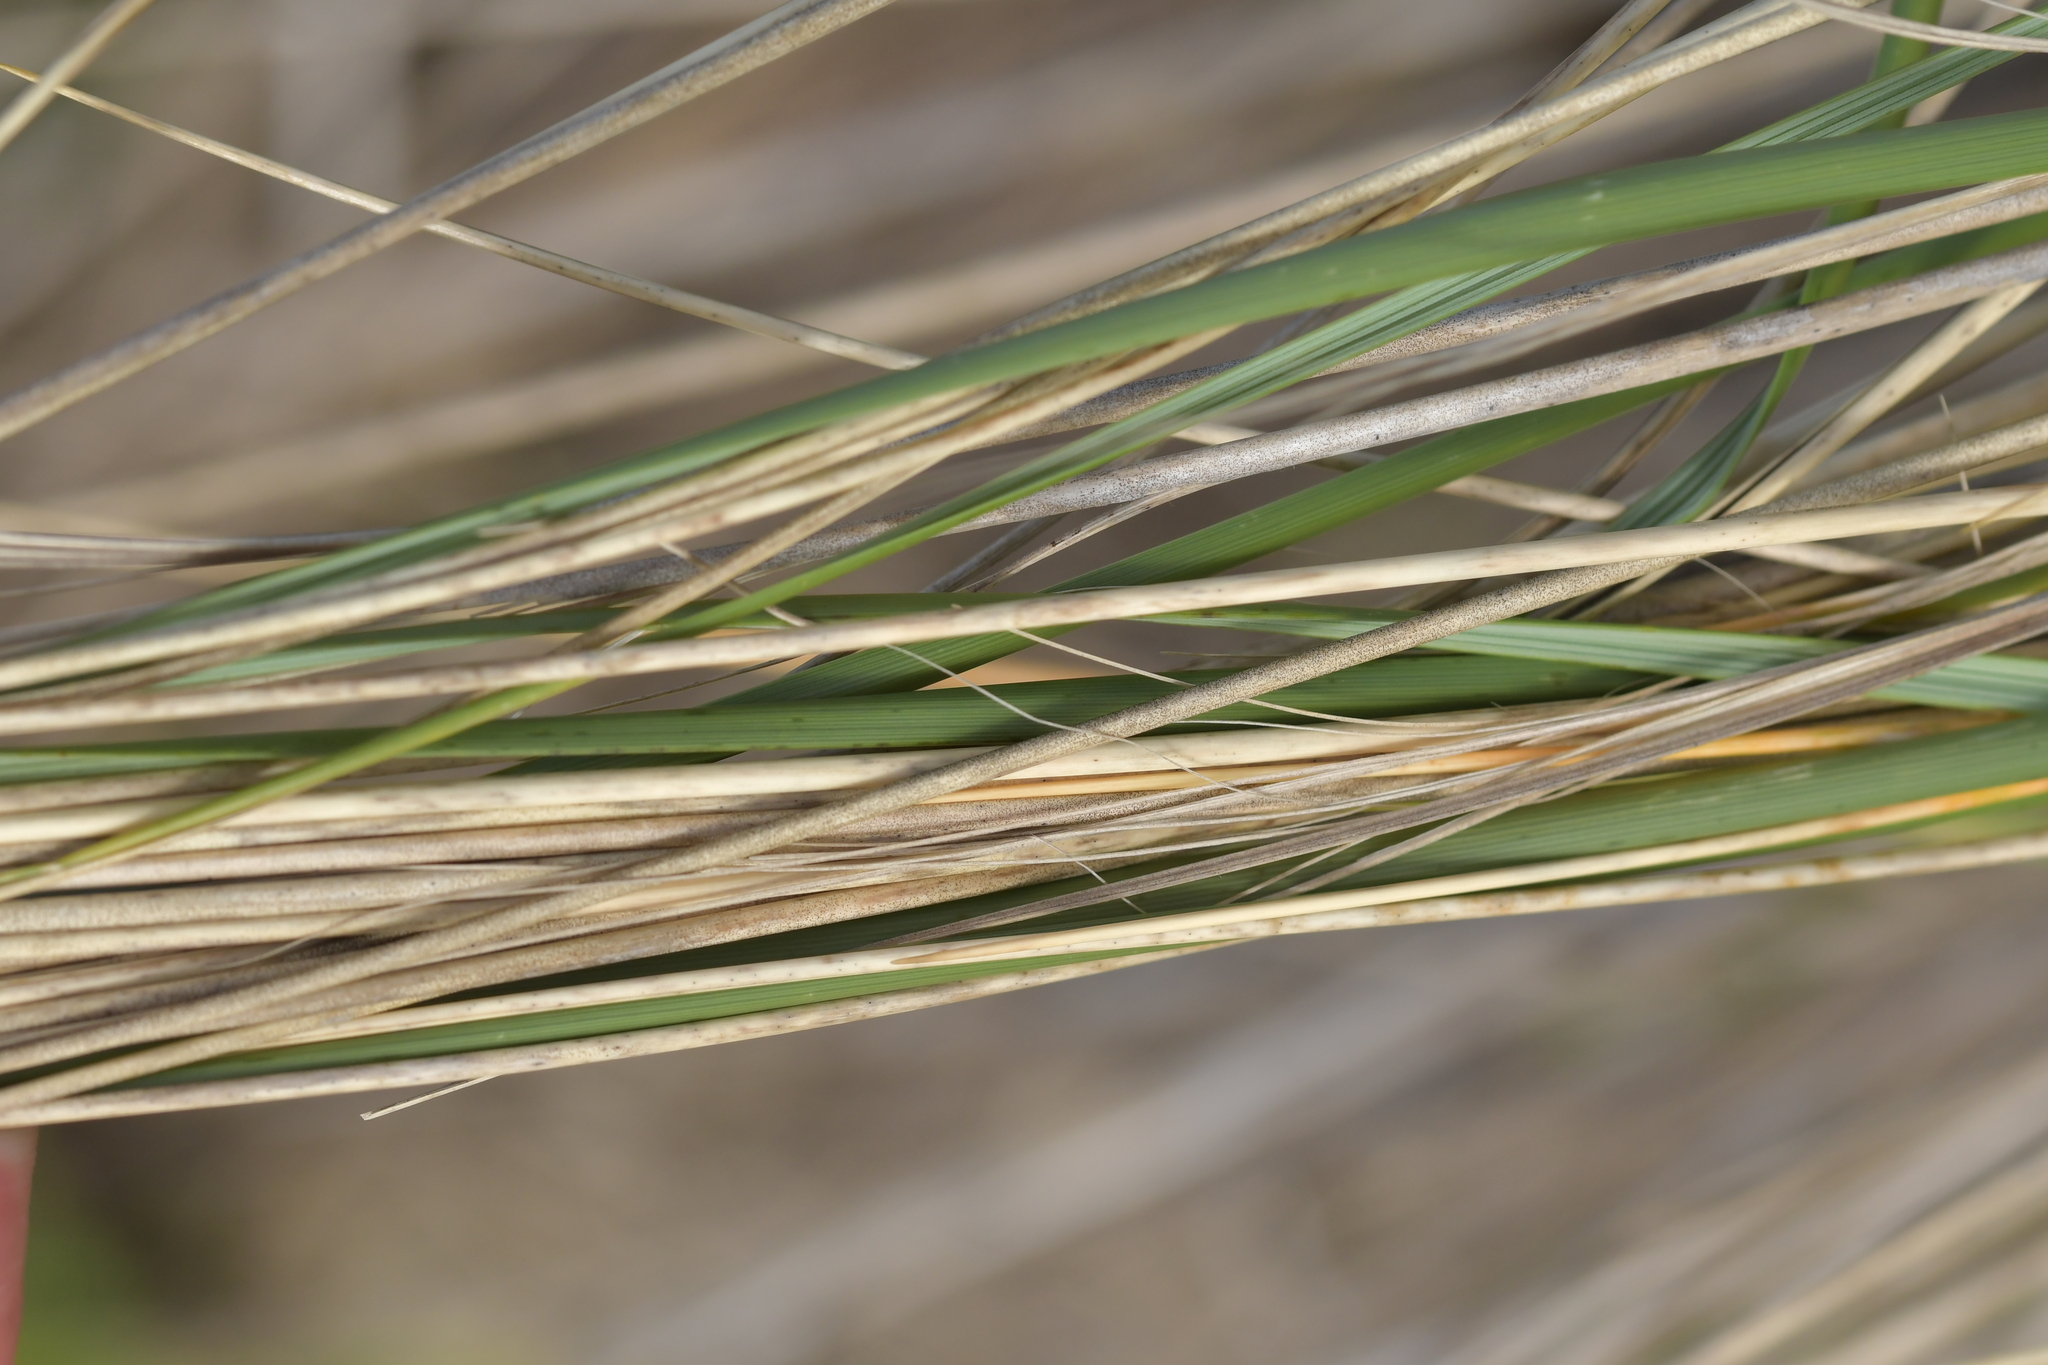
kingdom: Plantae
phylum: Tracheophyta
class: Liliopsida
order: Poales
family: Poaceae
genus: Calamagrostis
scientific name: Calamagrostis arenaria
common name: European beachgrass
